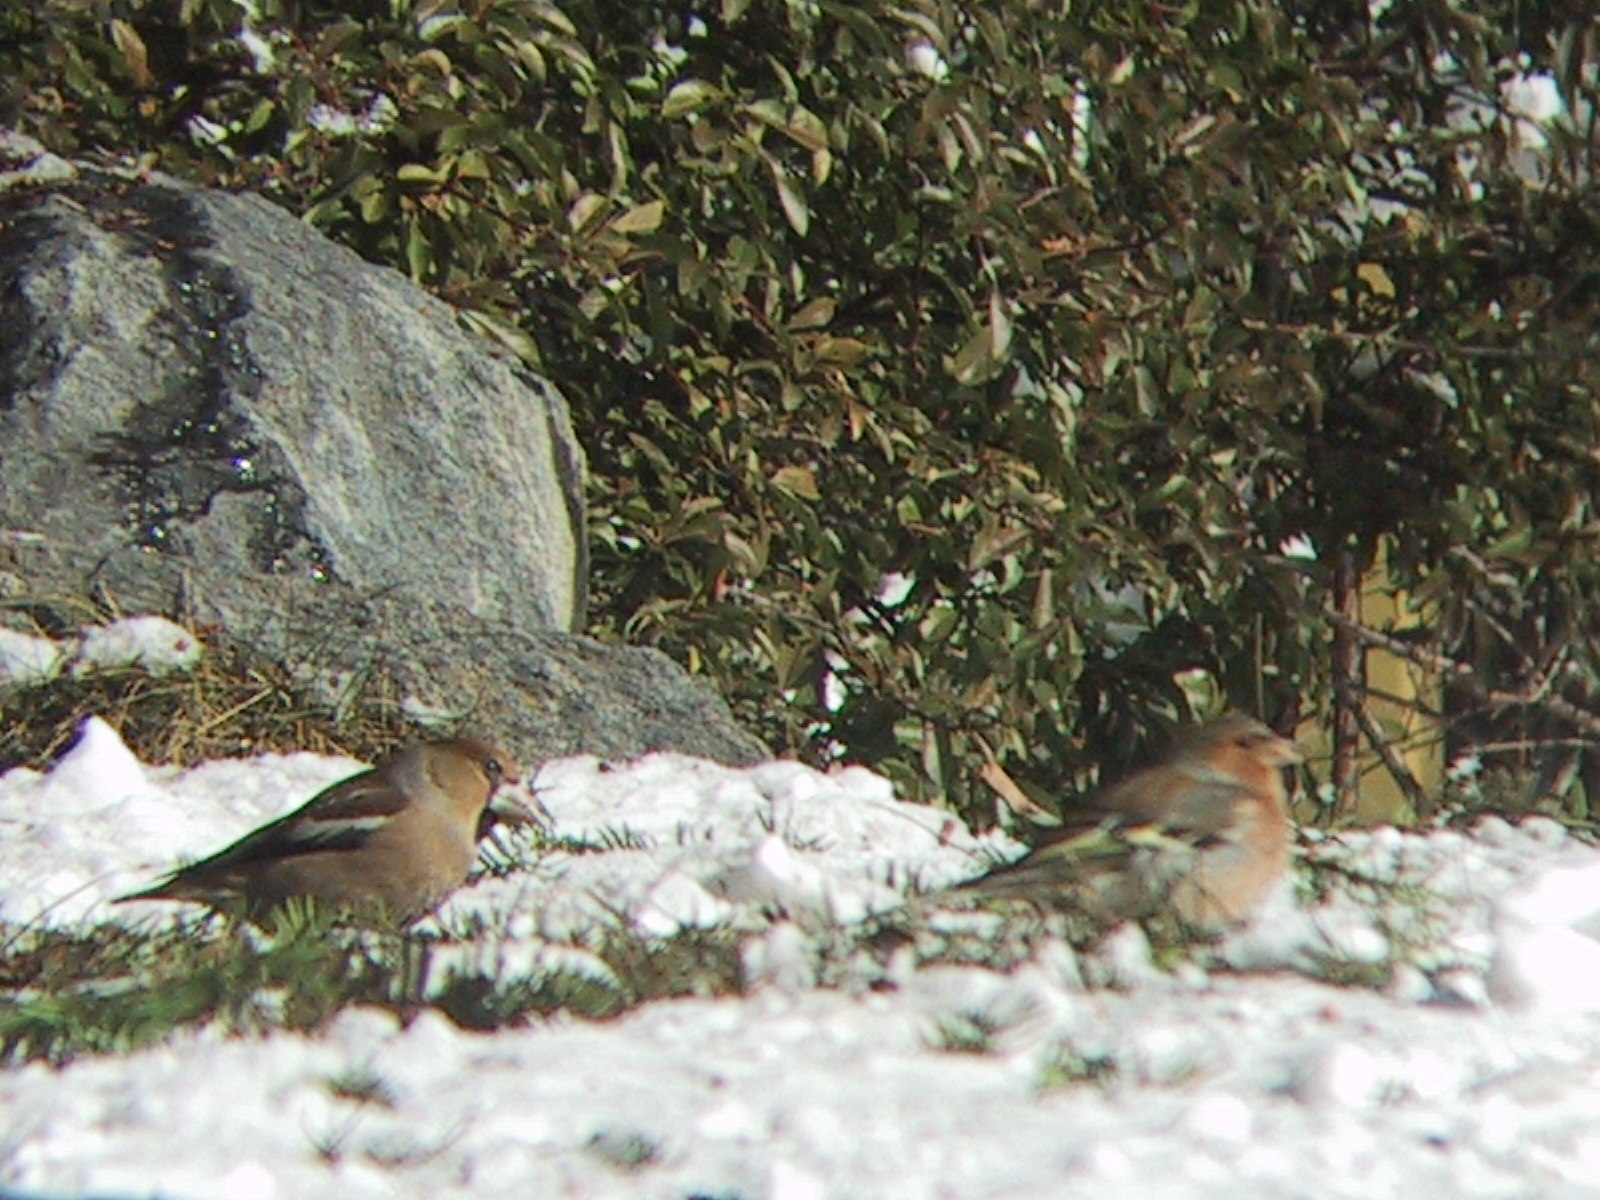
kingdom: Animalia
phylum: Chordata
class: Aves
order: Passeriformes
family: Fringillidae
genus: Fringilla
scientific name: Fringilla coelebs
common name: Common chaffinch
